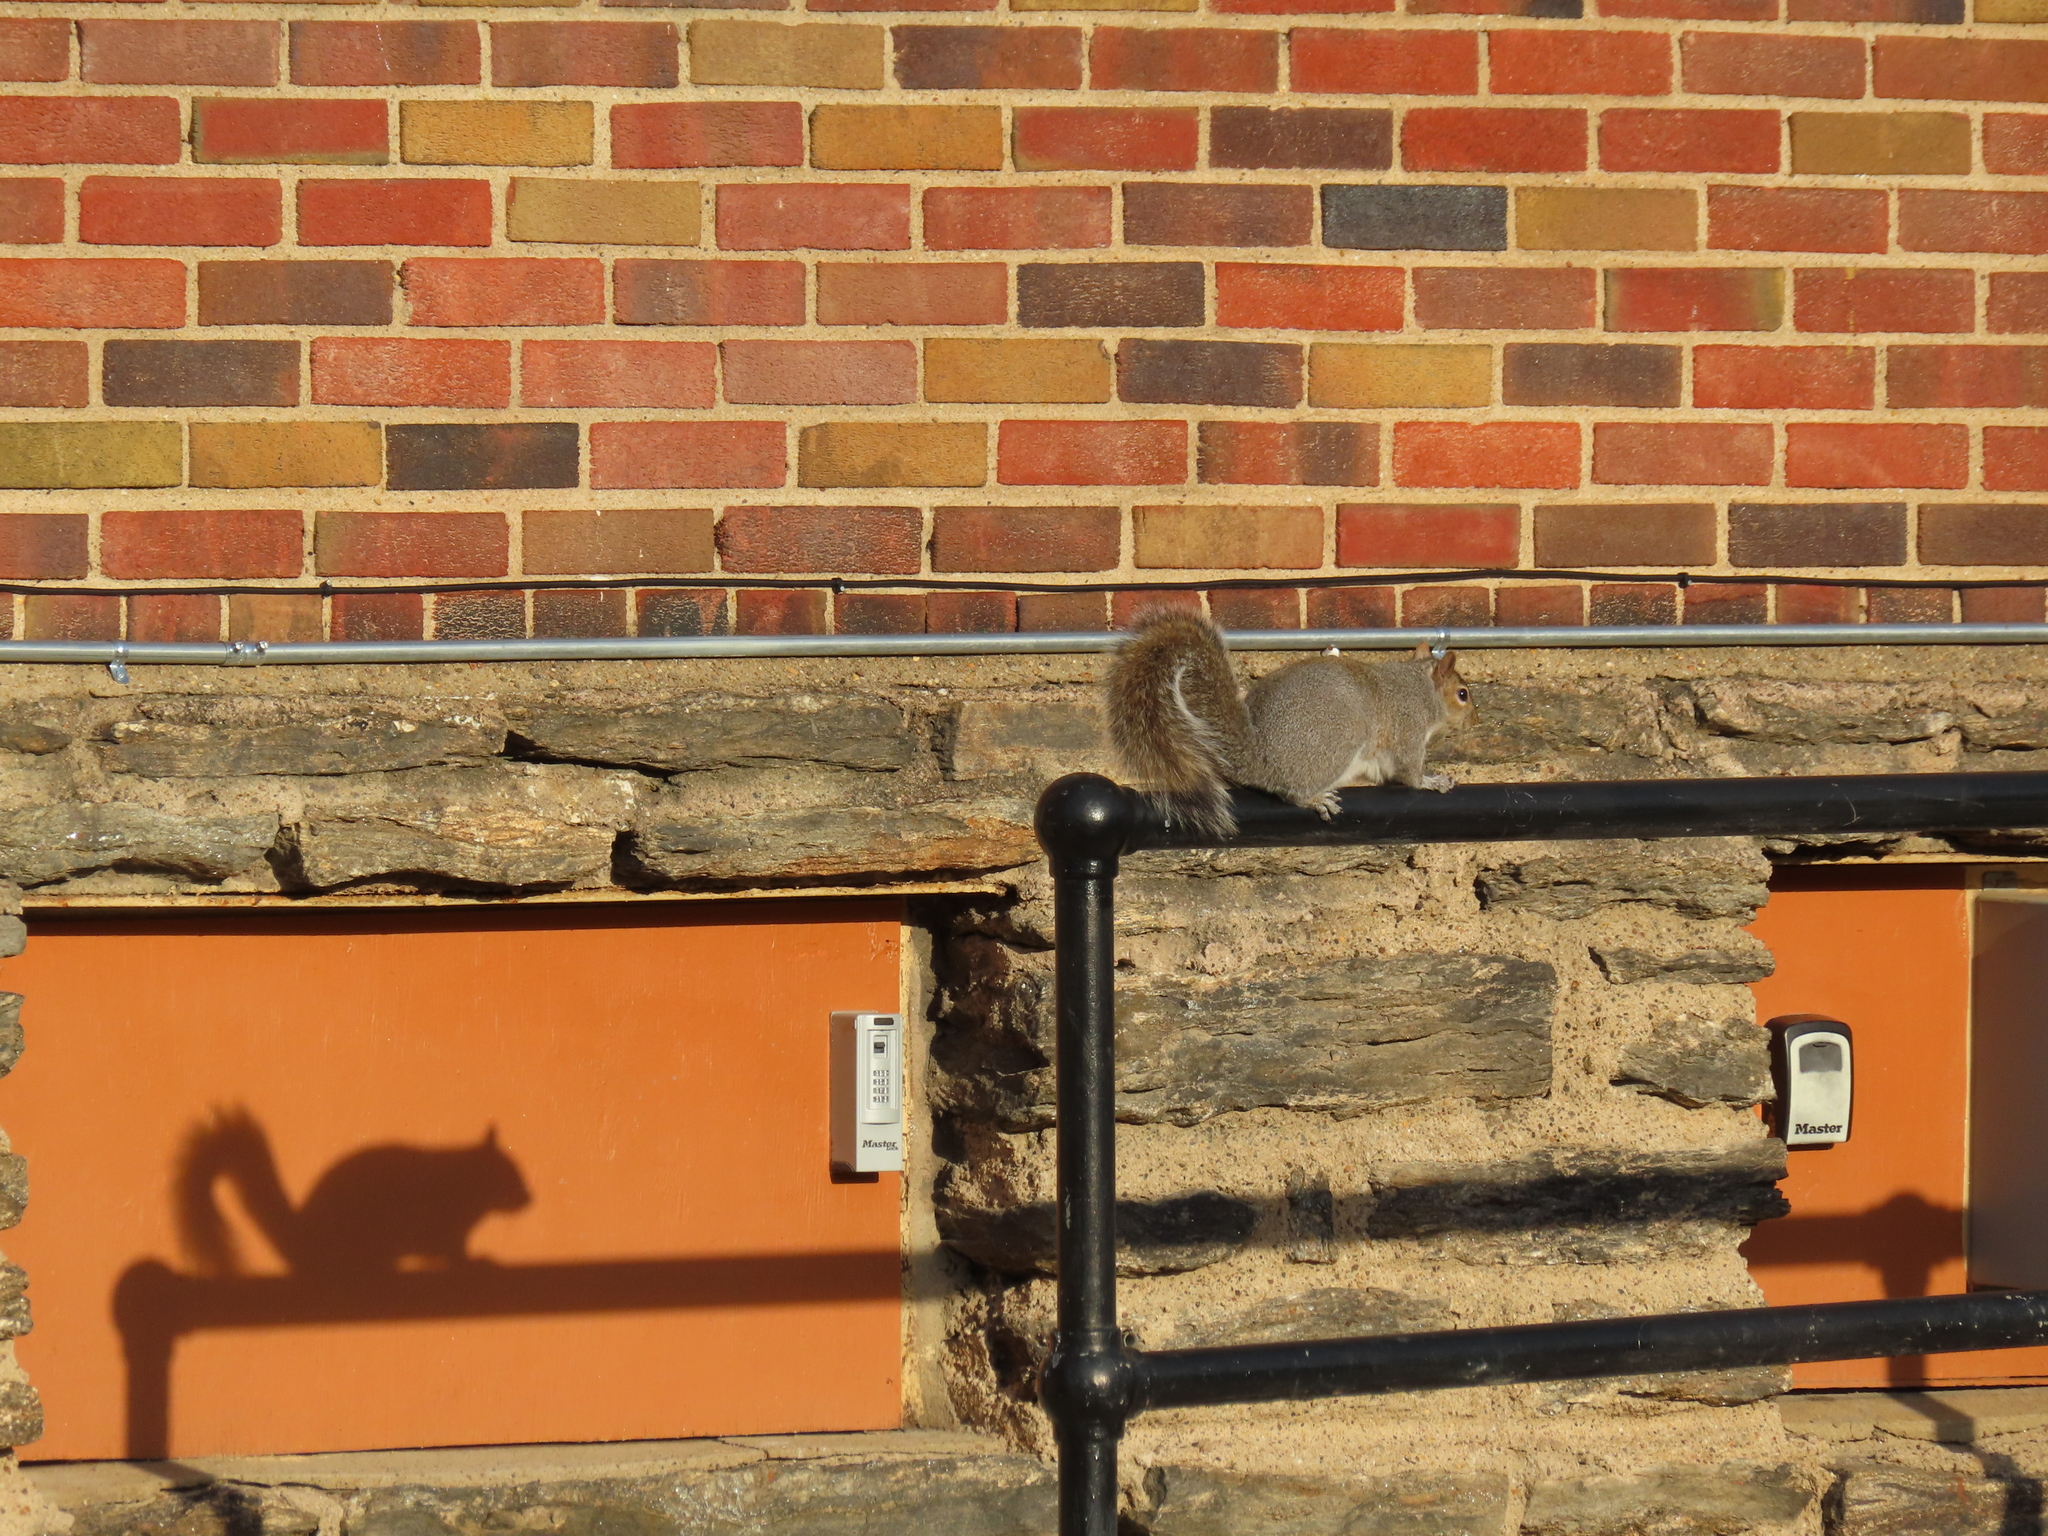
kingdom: Animalia
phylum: Chordata
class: Mammalia
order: Rodentia
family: Sciuridae
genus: Sciurus
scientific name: Sciurus carolinensis
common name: Eastern gray squirrel
